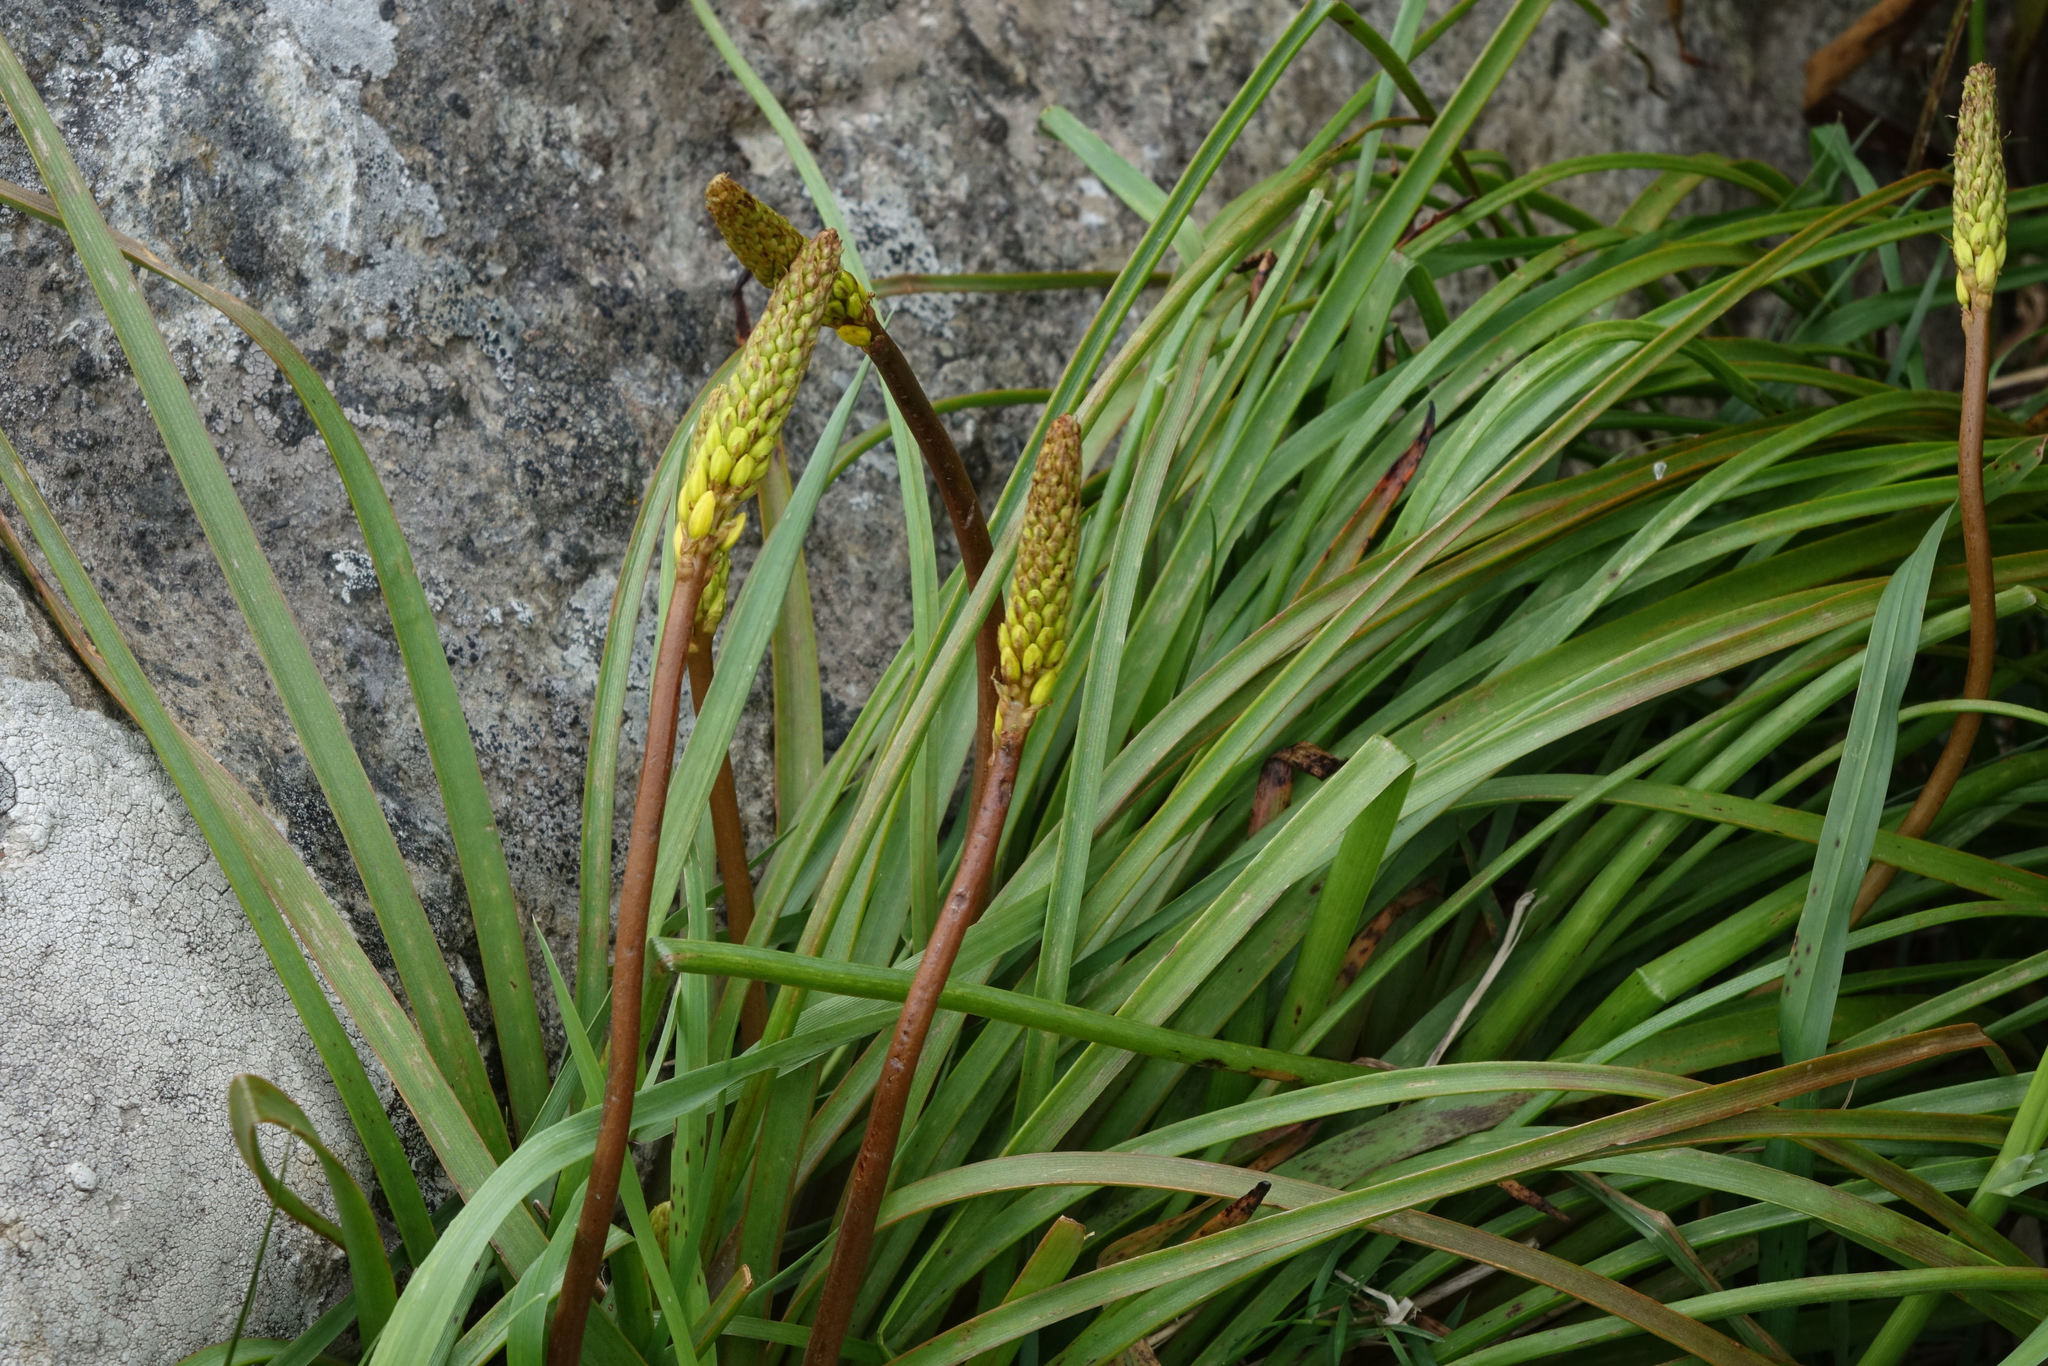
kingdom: Plantae
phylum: Tracheophyta
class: Liliopsida
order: Asparagales
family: Asphodelaceae
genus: Bulbinella
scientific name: Bulbinella angustifolia
